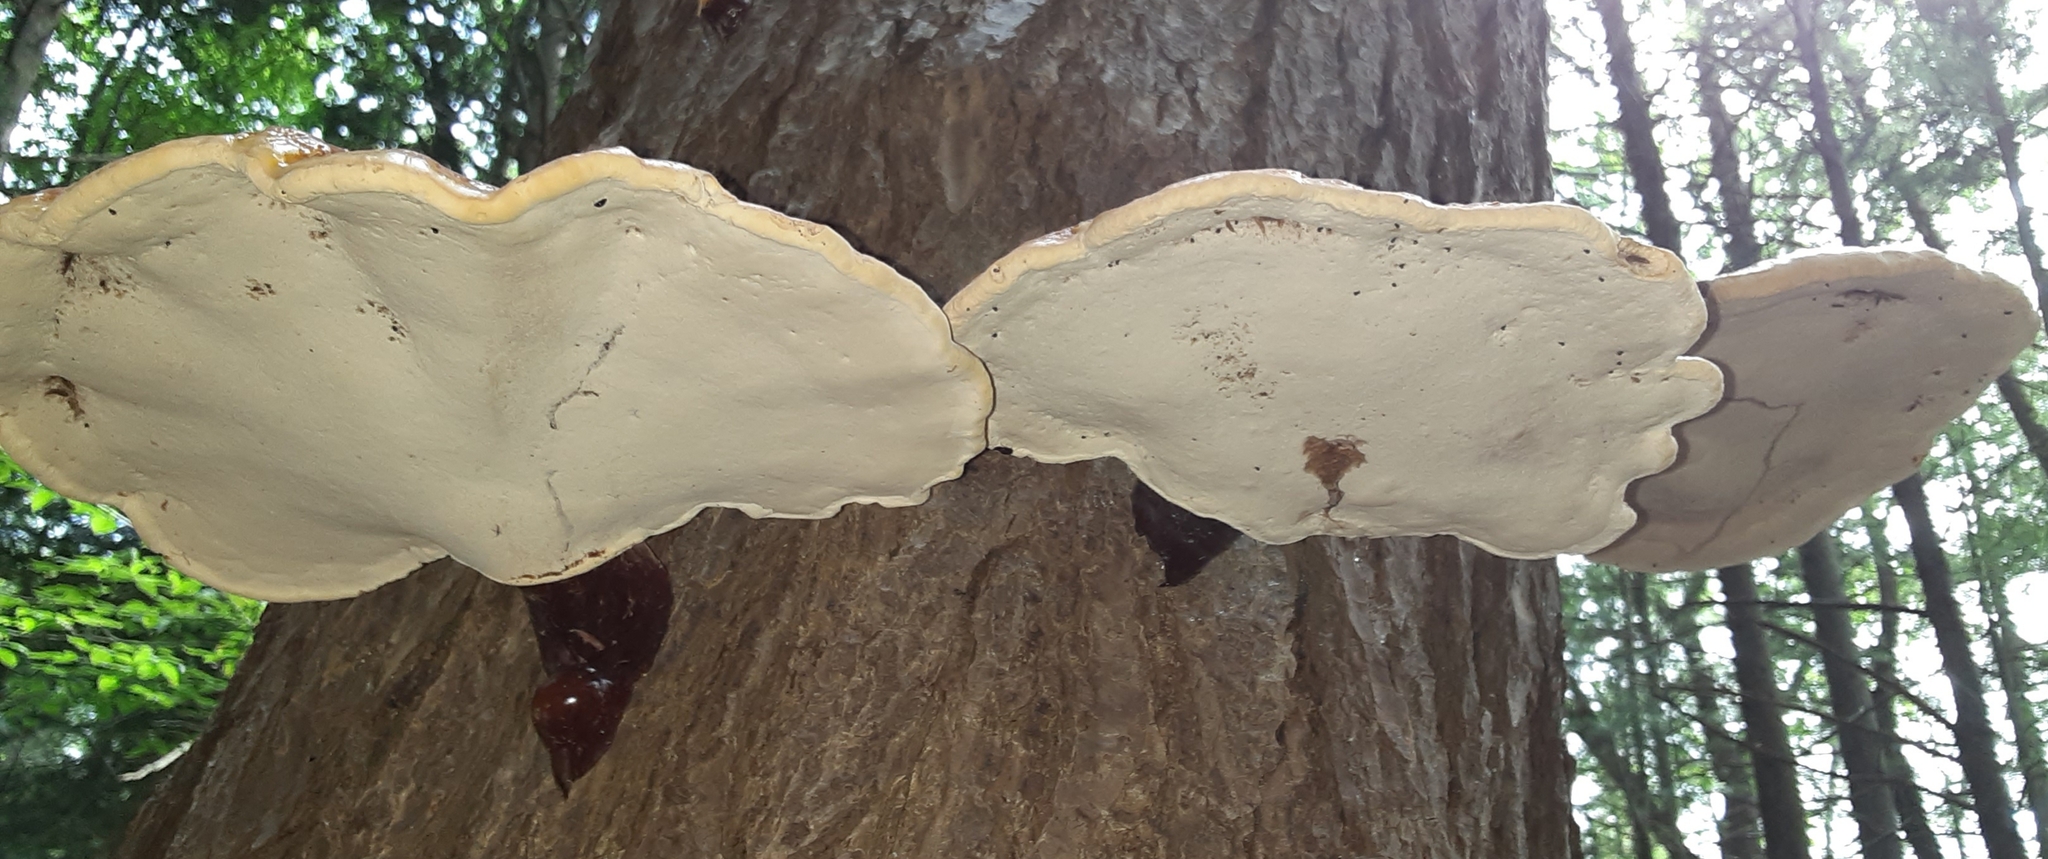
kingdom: Fungi
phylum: Basidiomycota
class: Agaricomycetes
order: Polyporales
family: Polyporaceae
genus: Ganoderma
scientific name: Ganoderma tsugae
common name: Hemlock varnish shelf
